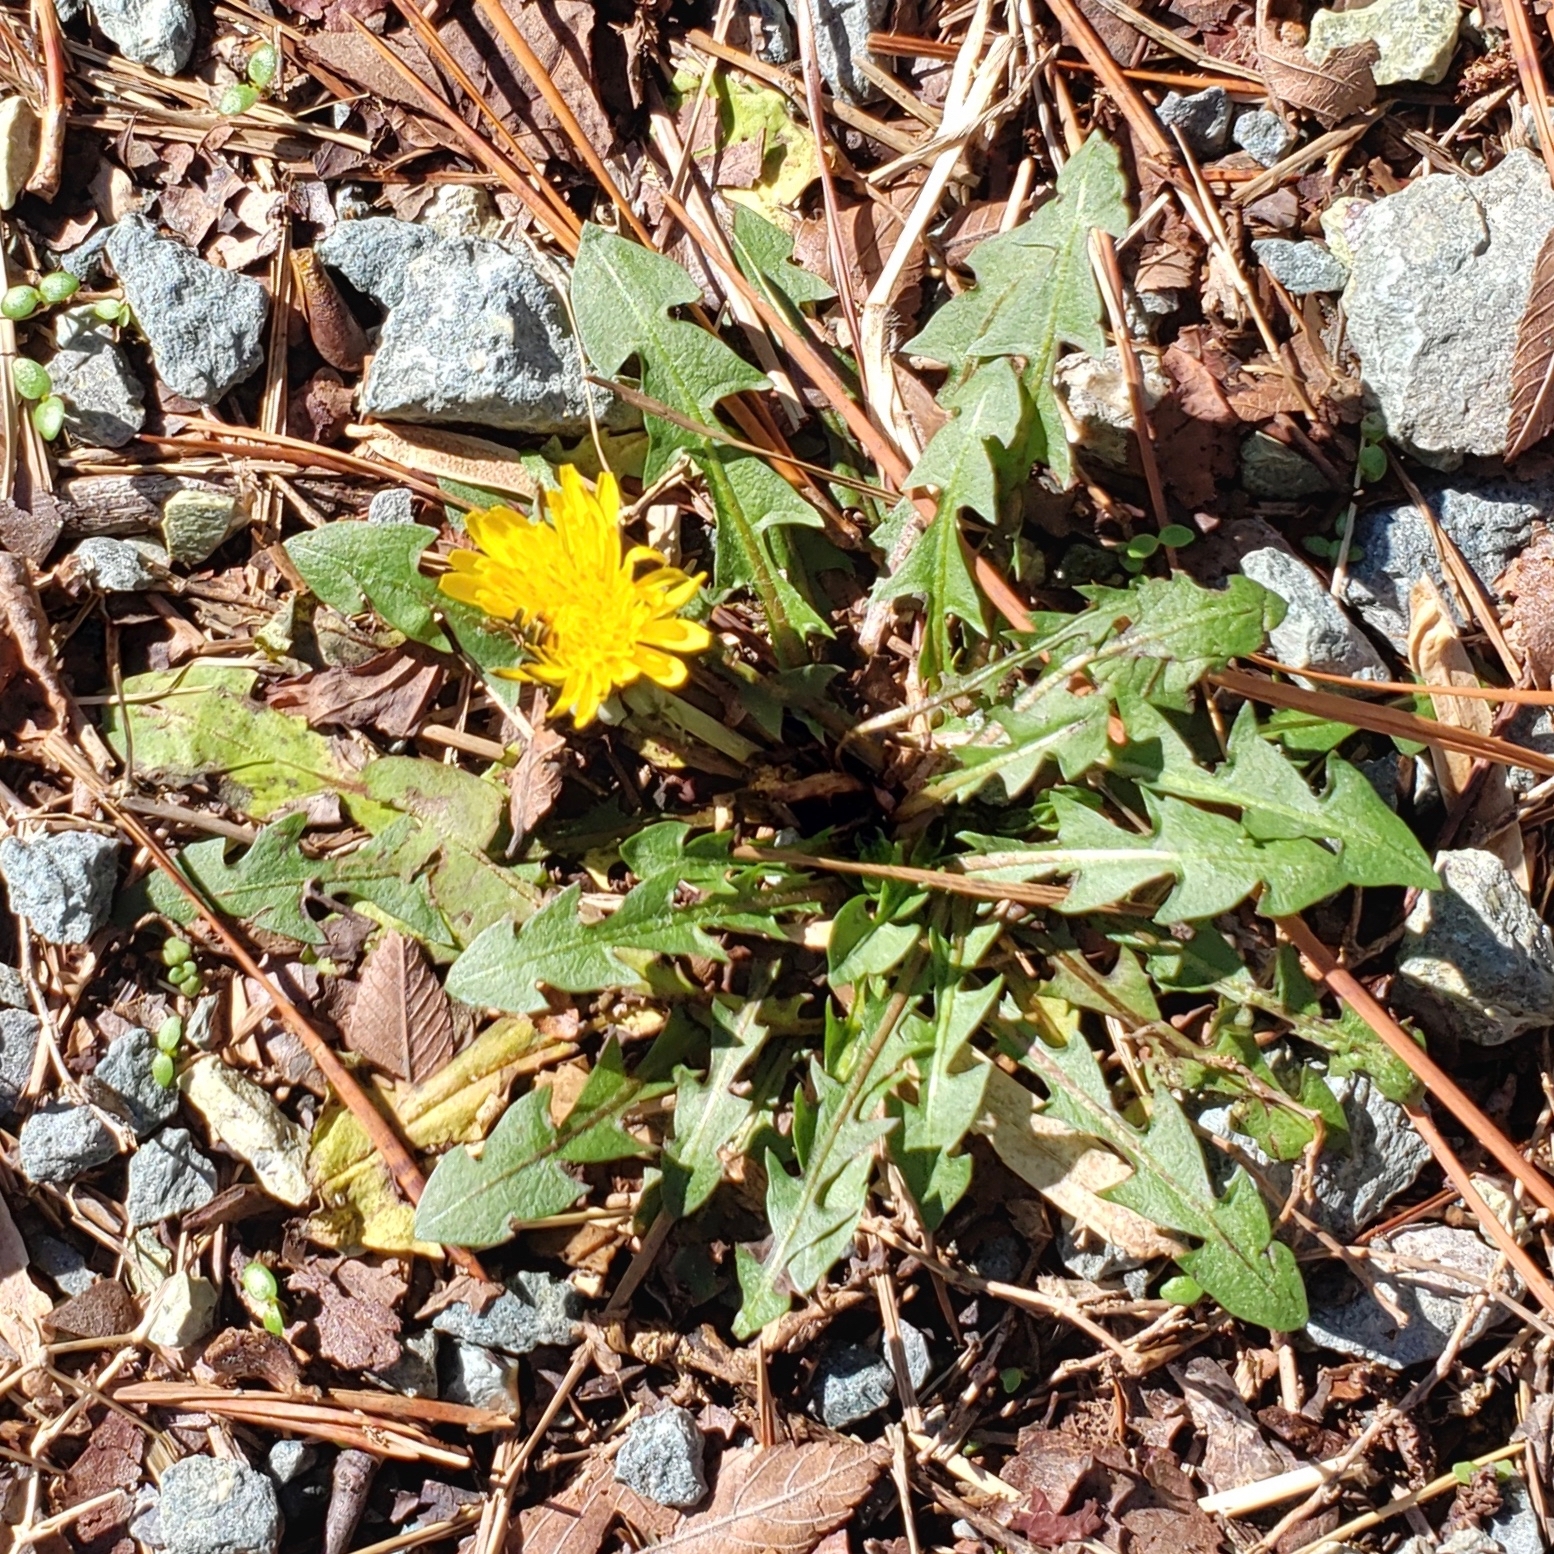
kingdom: Plantae
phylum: Tracheophyta
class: Magnoliopsida
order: Asterales
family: Asteraceae
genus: Taraxacum
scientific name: Taraxacum officinale
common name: Common dandelion
